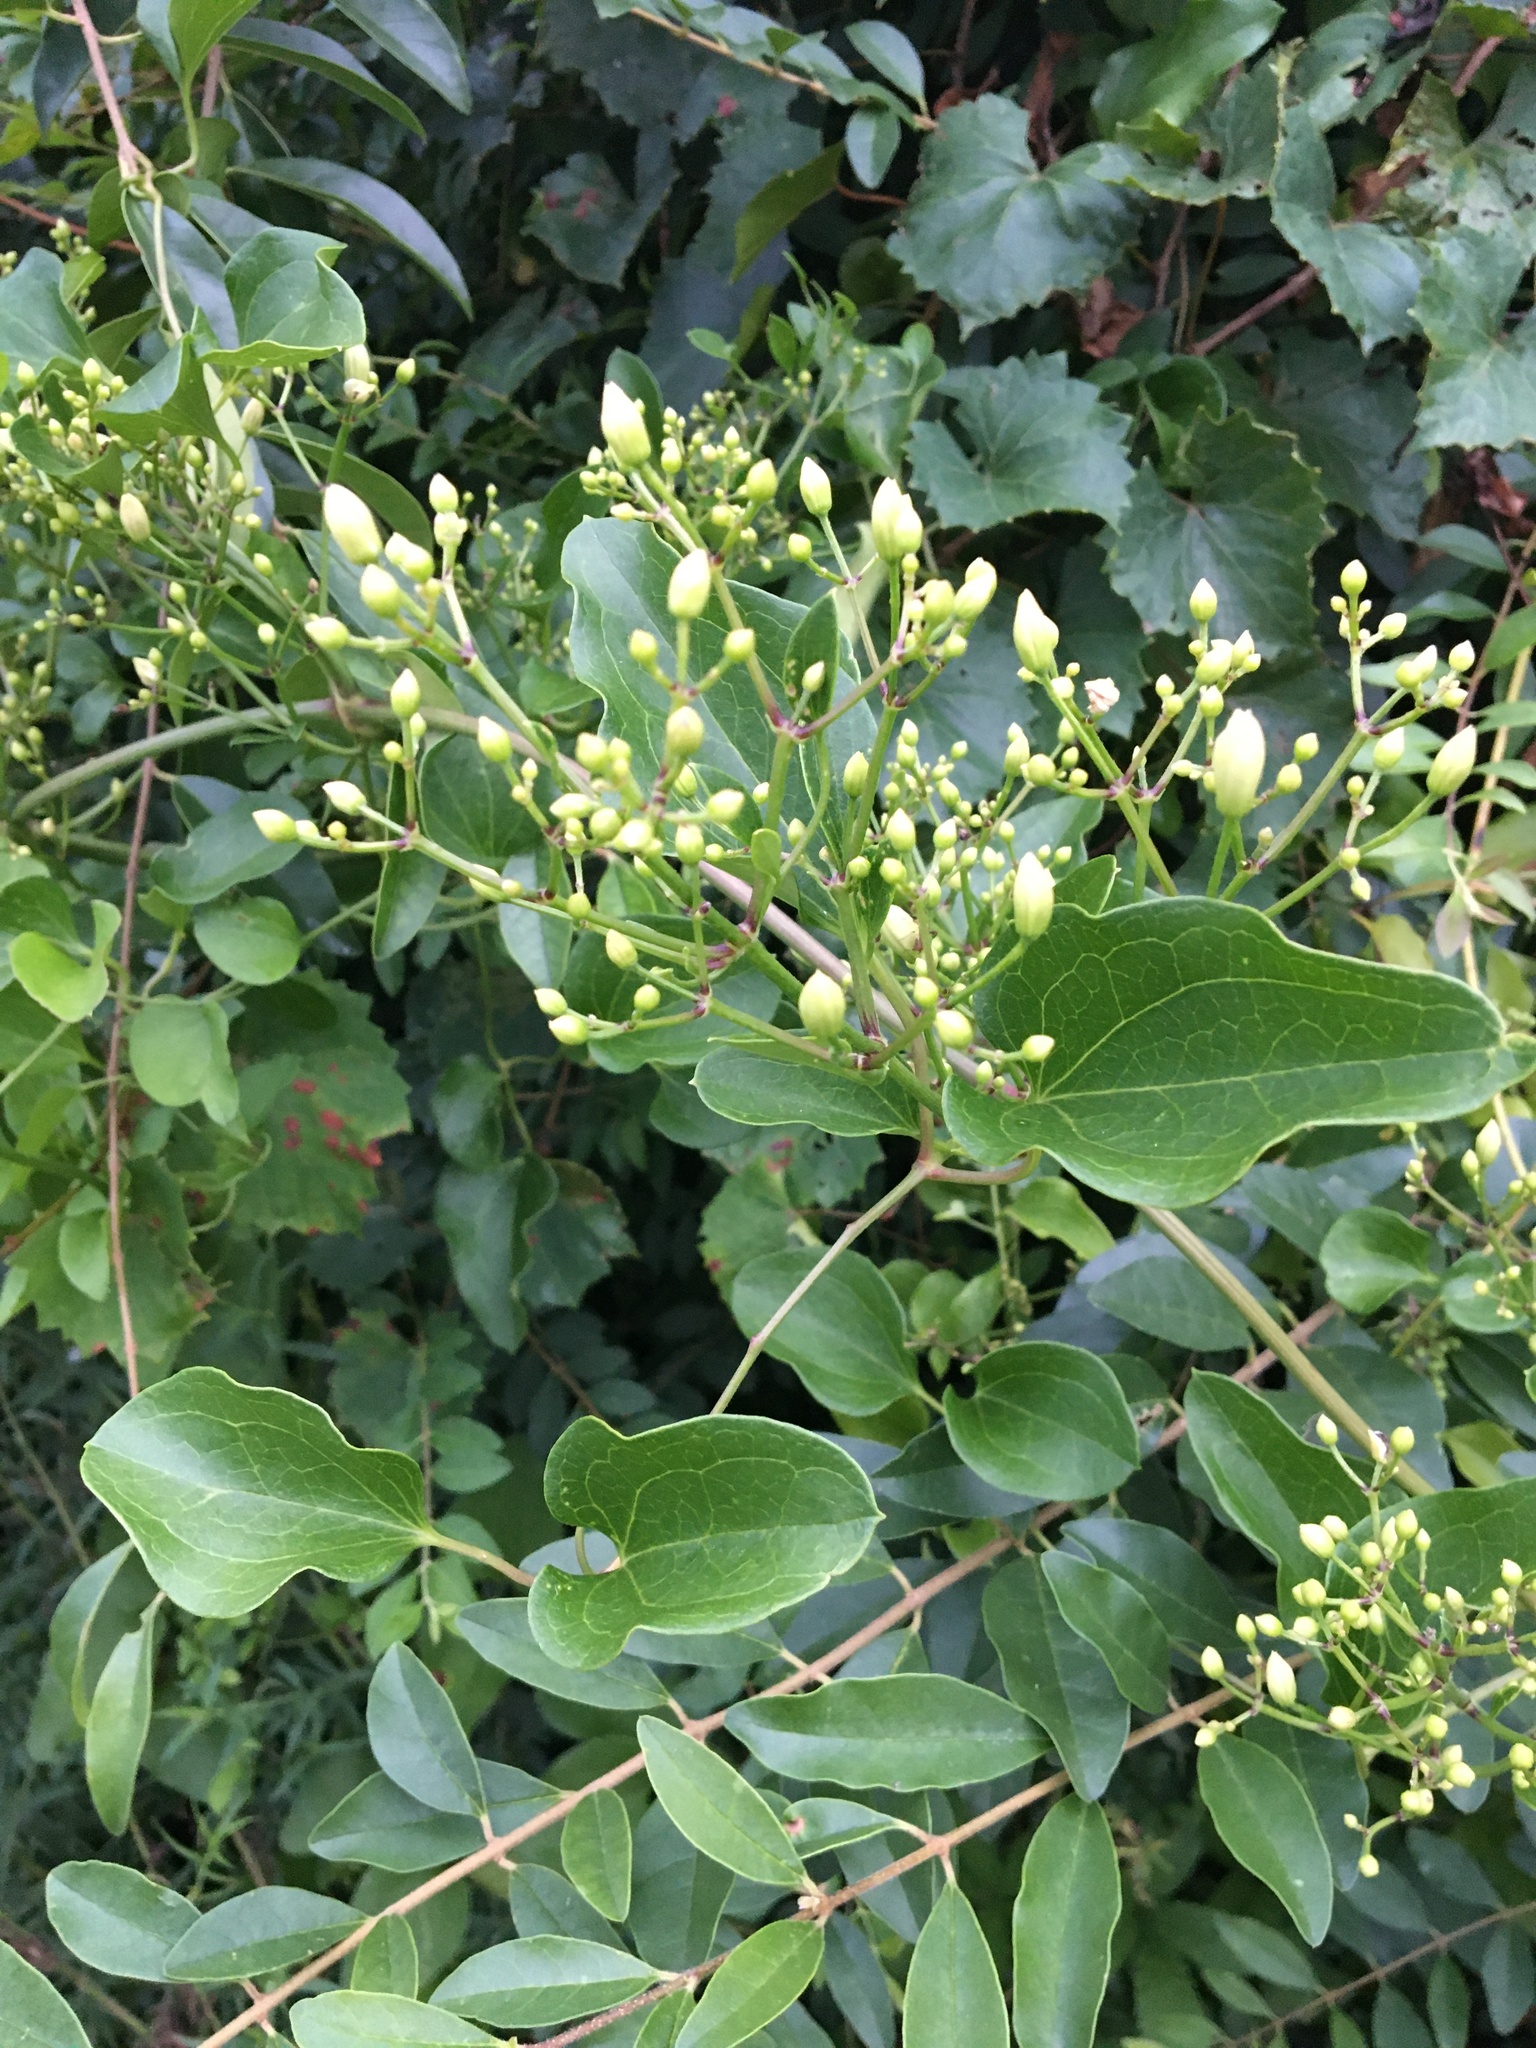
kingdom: Plantae
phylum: Tracheophyta
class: Magnoliopsida
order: Ranunculales
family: Ranunculaceae
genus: Clematis
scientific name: Clematis terniflora
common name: Sweet autumn clematis
